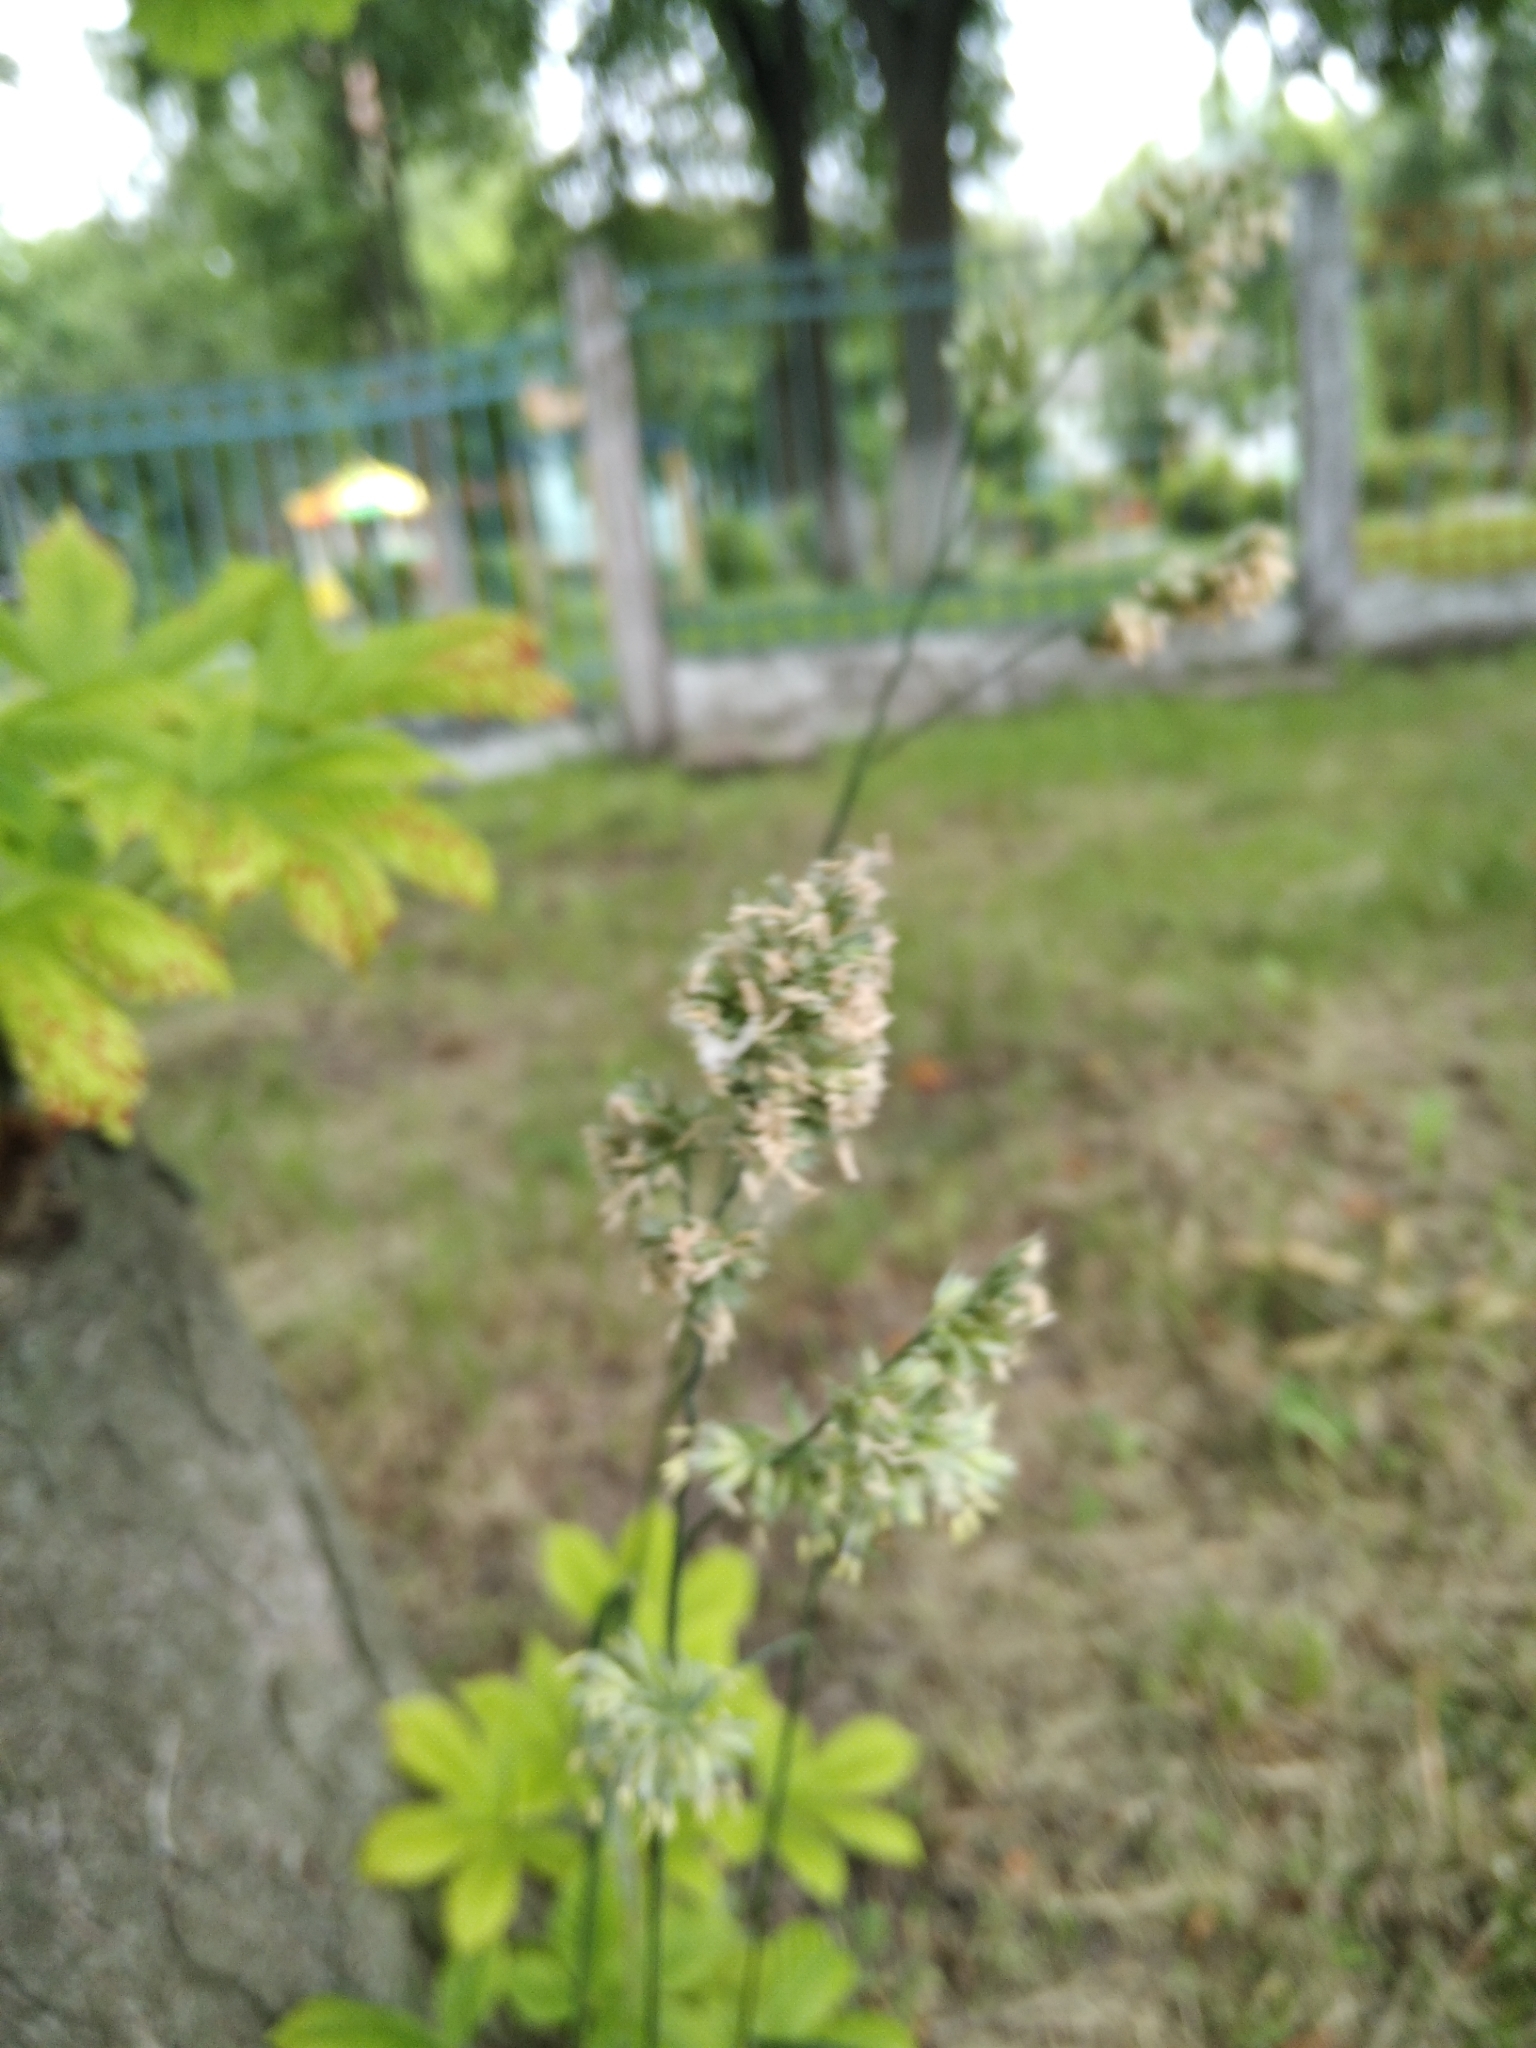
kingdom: Plantae
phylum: Tracheophyta
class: Liliopsida
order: Poales
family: Poaceae
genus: Dactylis
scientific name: Dactylis glomerata
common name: Orchardgrass
